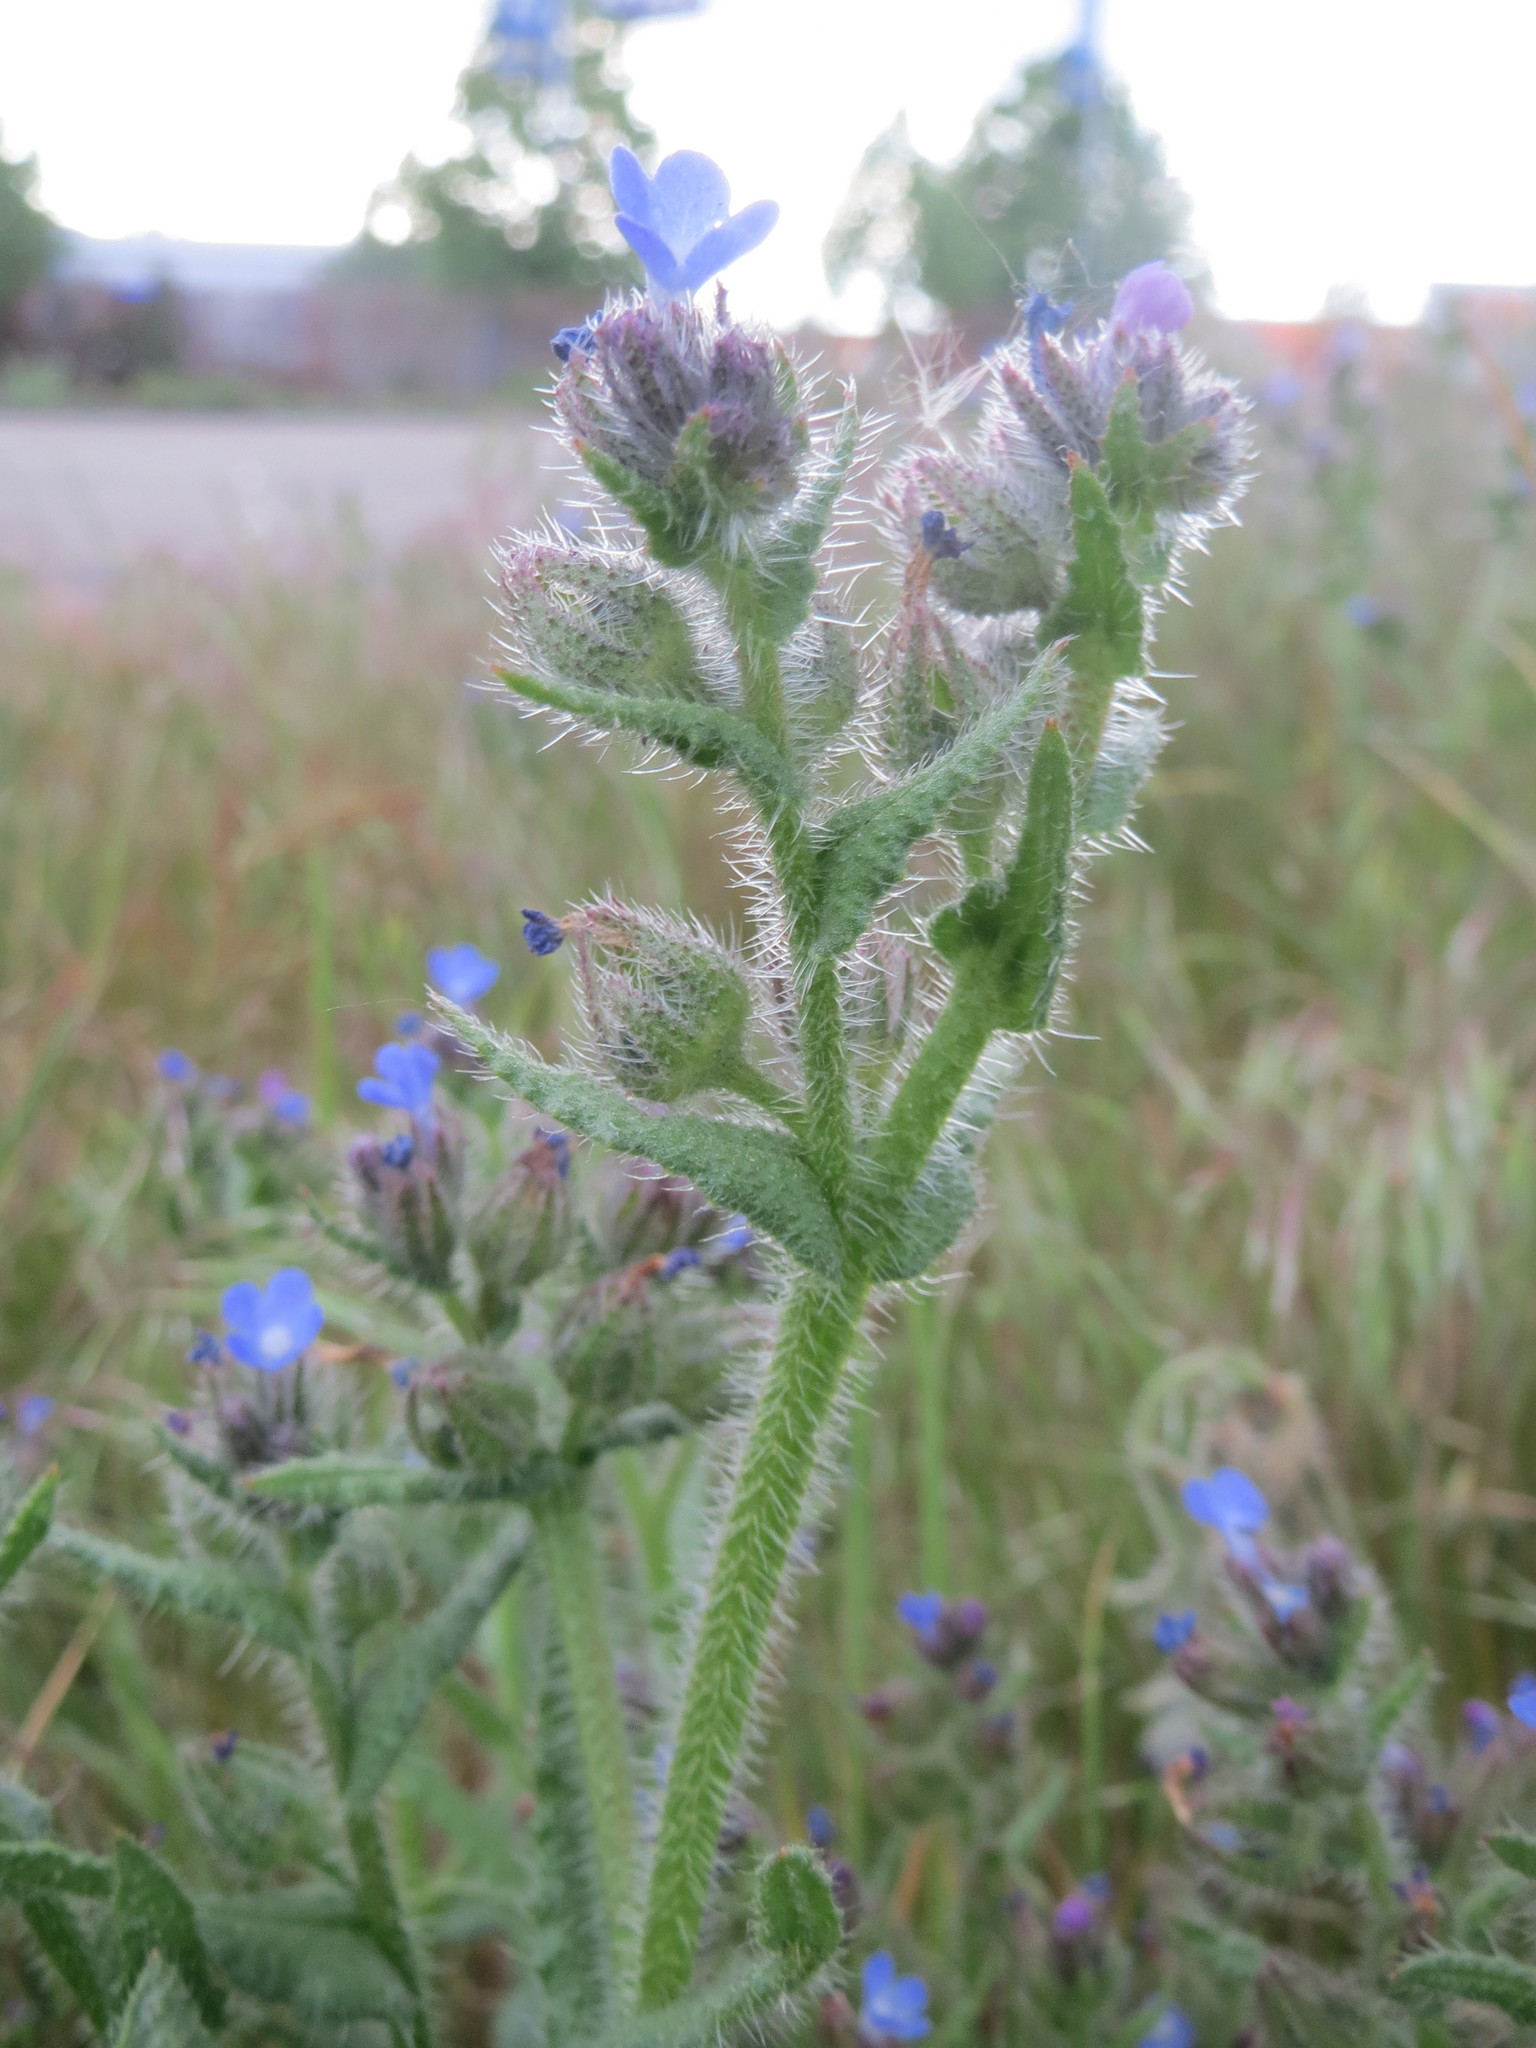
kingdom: Plantae
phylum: Tracheophyta
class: Magnoliopsida
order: Boraginales
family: Boraginaceae
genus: Lycopsis
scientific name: Lycopsis arvensis
